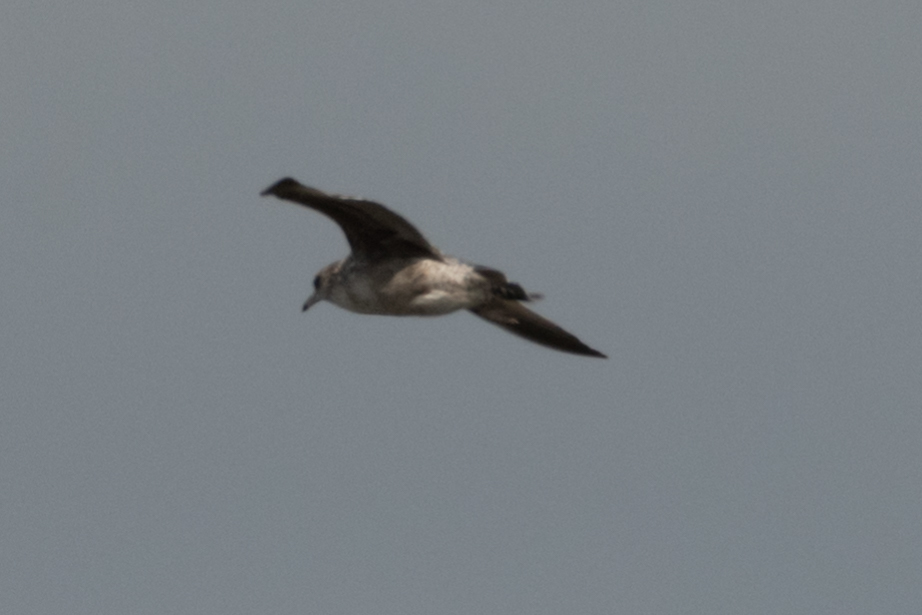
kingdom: Animalia
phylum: Chordata
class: Aves
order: Charadriiformes
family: Laridae
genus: Larus
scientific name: Larus californicus
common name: California gull
